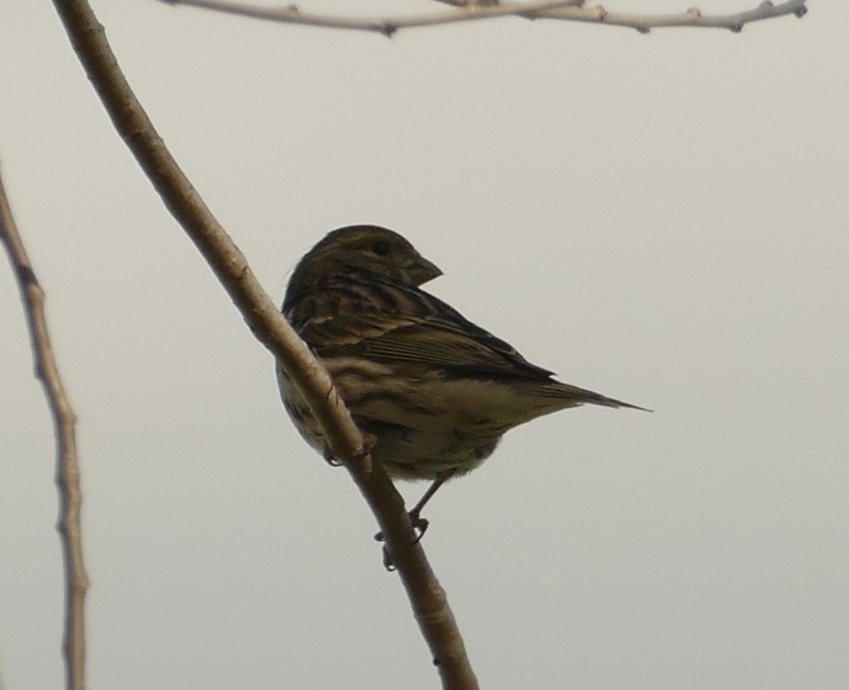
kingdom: Animalia
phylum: Chordata
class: Aves
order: Passeriformes
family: Fringillidae
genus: Serinus
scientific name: Serinus serinus
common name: European serin
